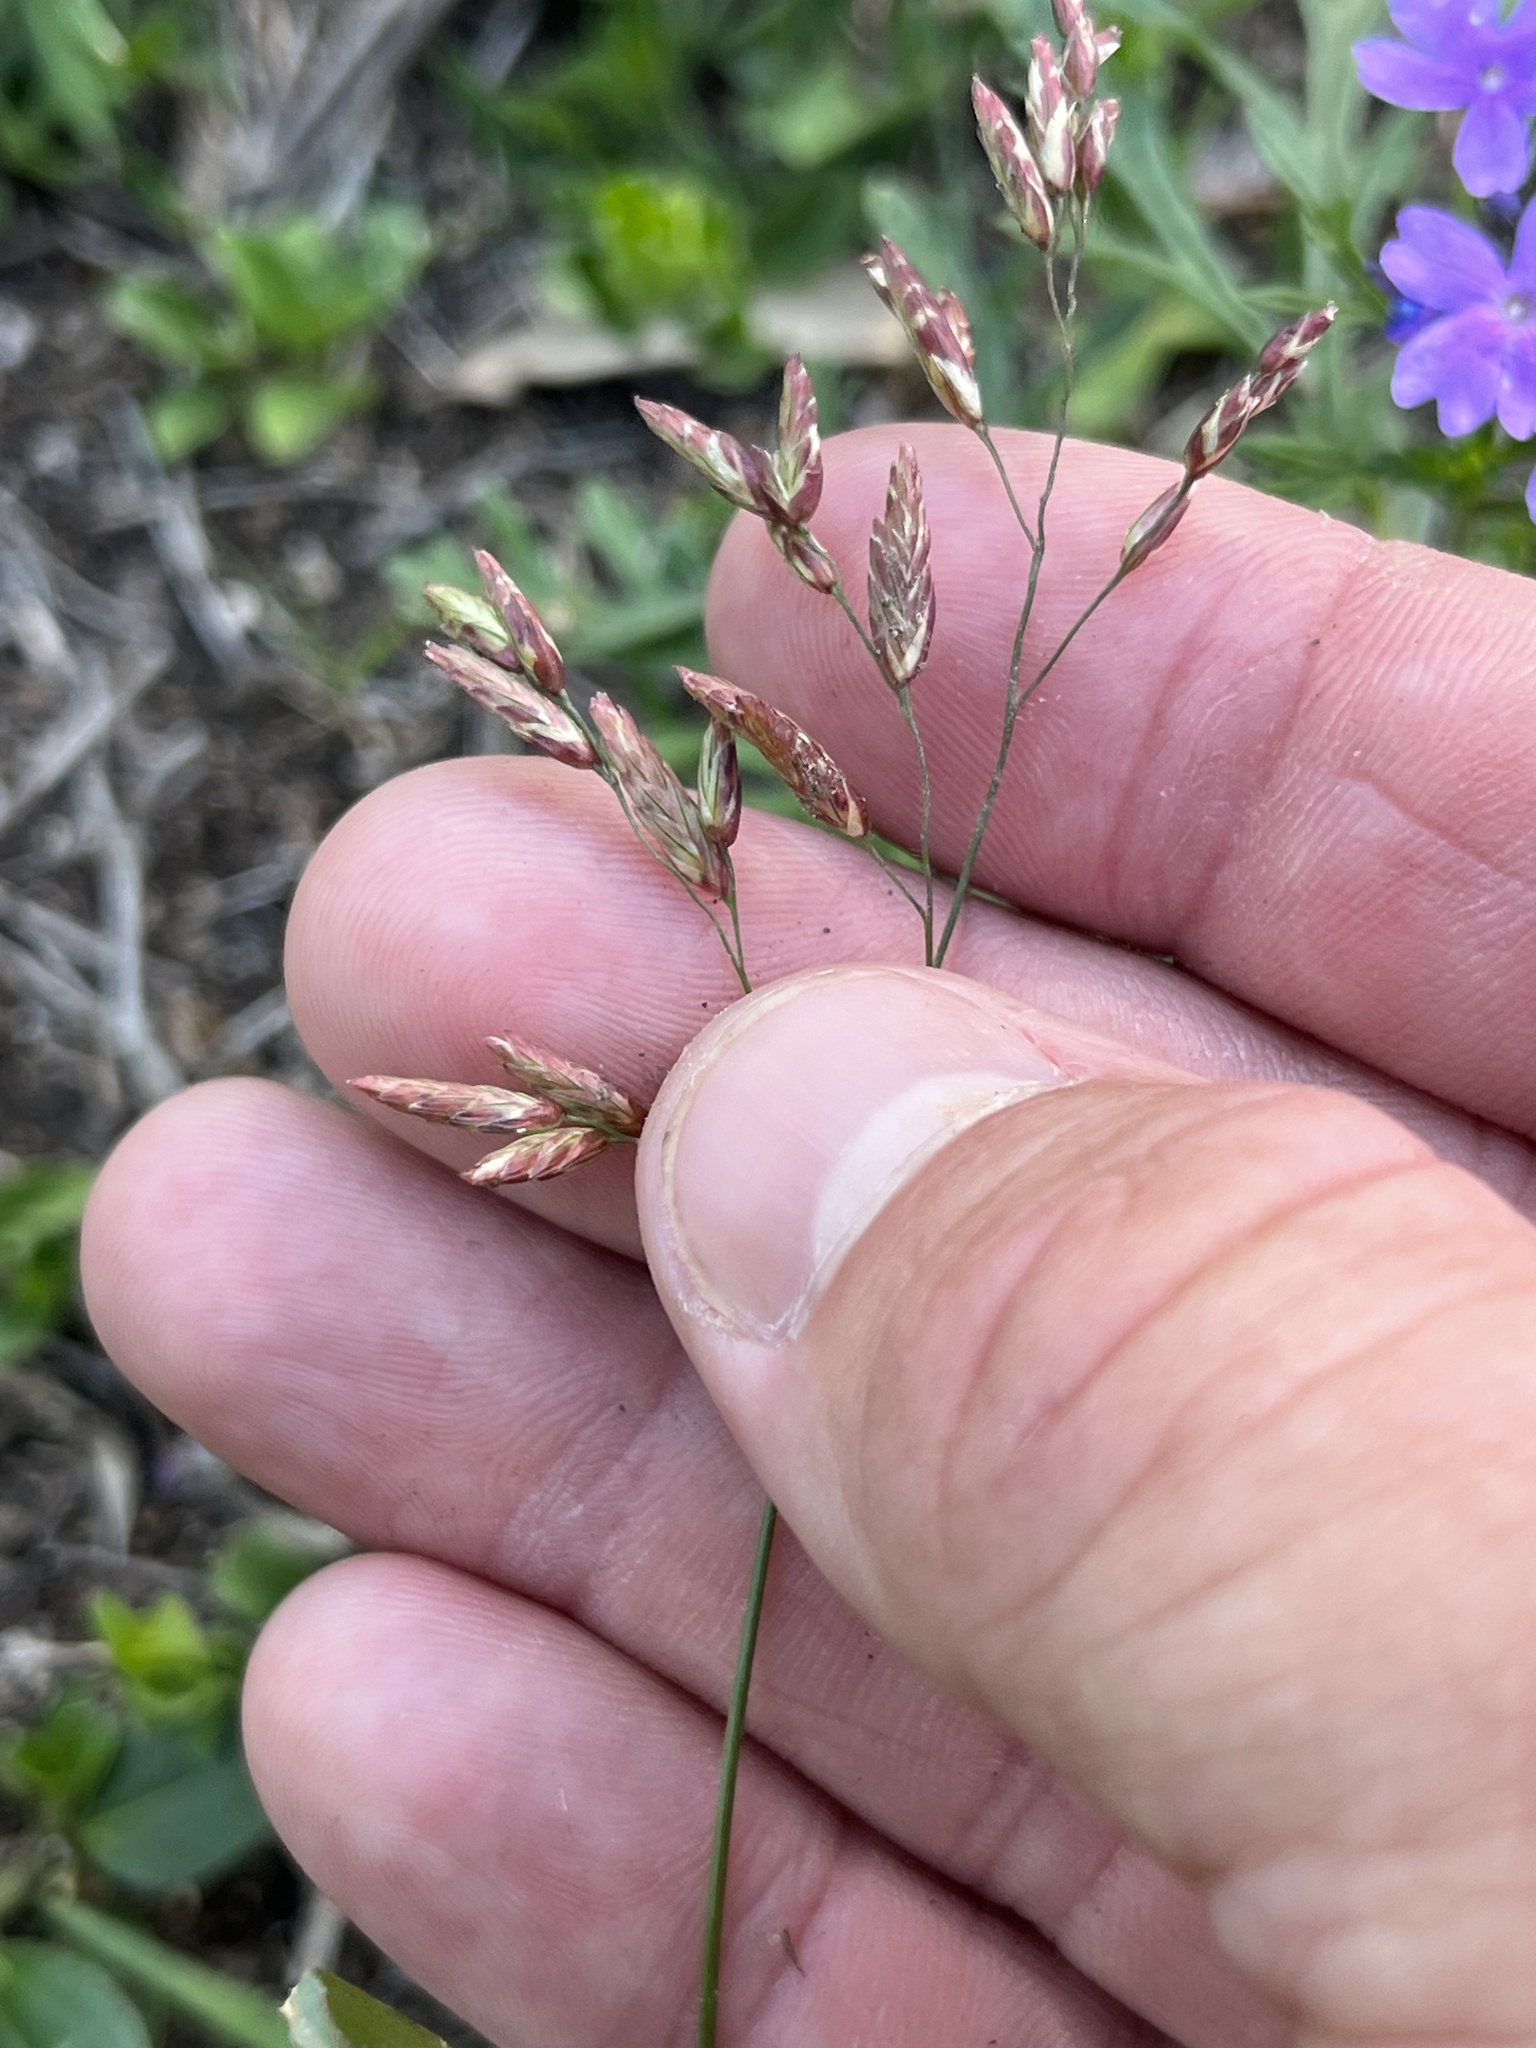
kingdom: Plantae
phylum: Tracheophyta
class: Liliopsida
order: Poales
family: Poaceae
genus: Tridens
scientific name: Tridens texanus
